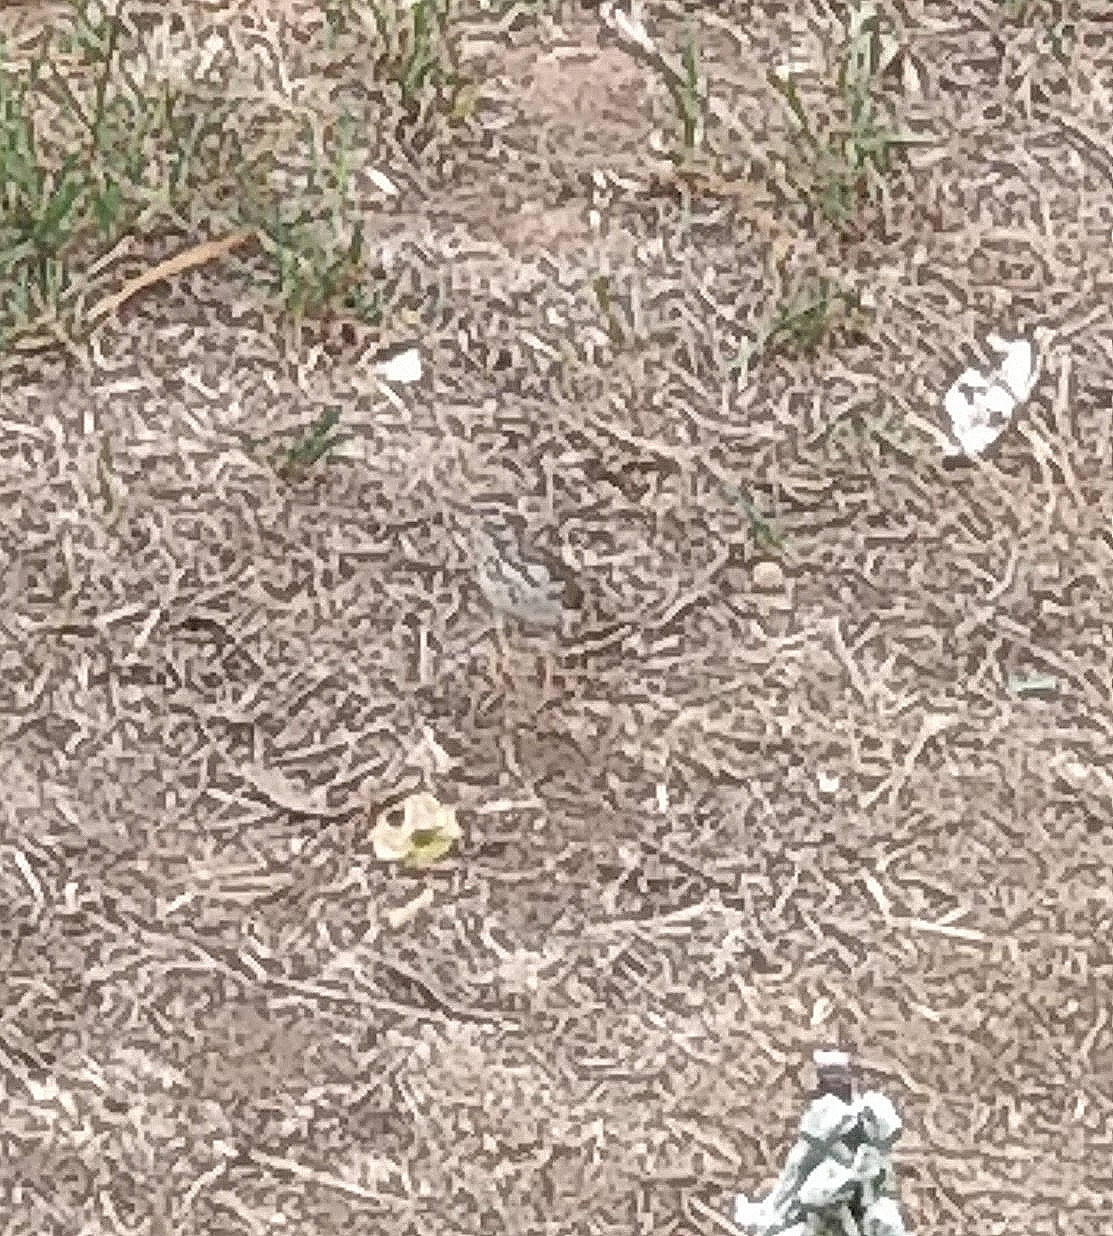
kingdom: Animalia
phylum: Chordata
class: Aves
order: Passeriformes
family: Motacillidae
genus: Anthus
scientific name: Anthus berthelotii
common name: Berthelot's pipit
